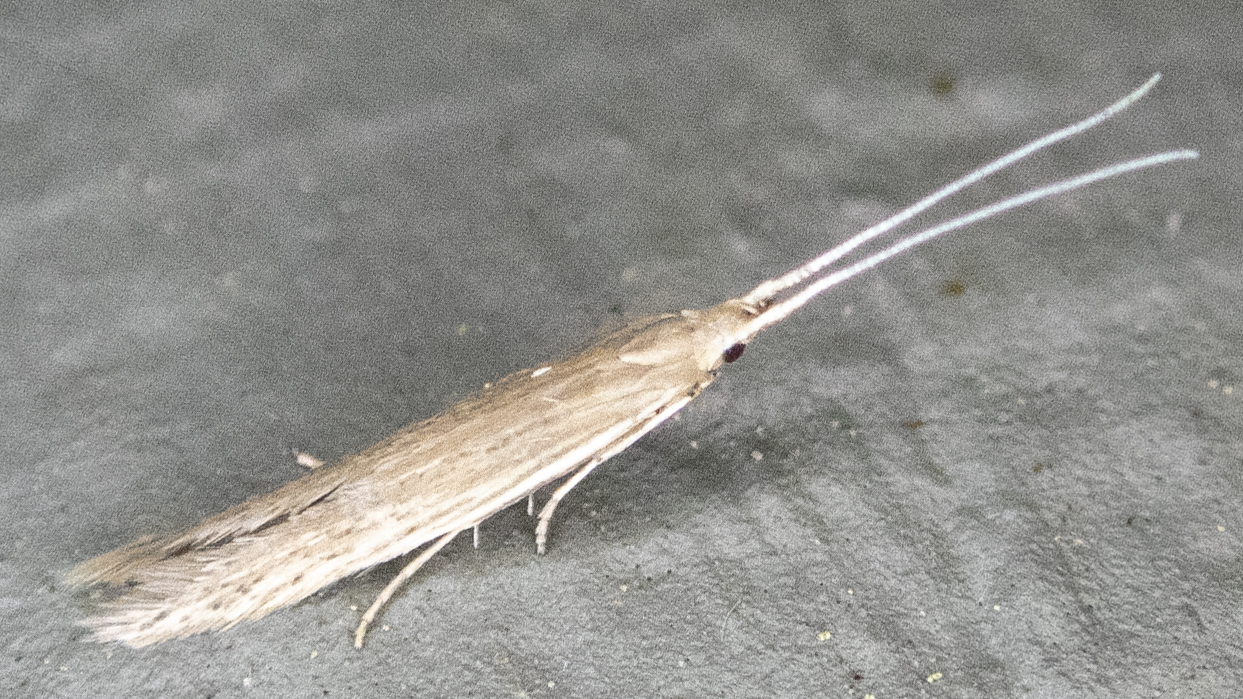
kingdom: Animalia
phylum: Arthropoda
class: Insecta
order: Lepidoptera
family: Coleophoridae
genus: Coleophora
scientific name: Coleophora
